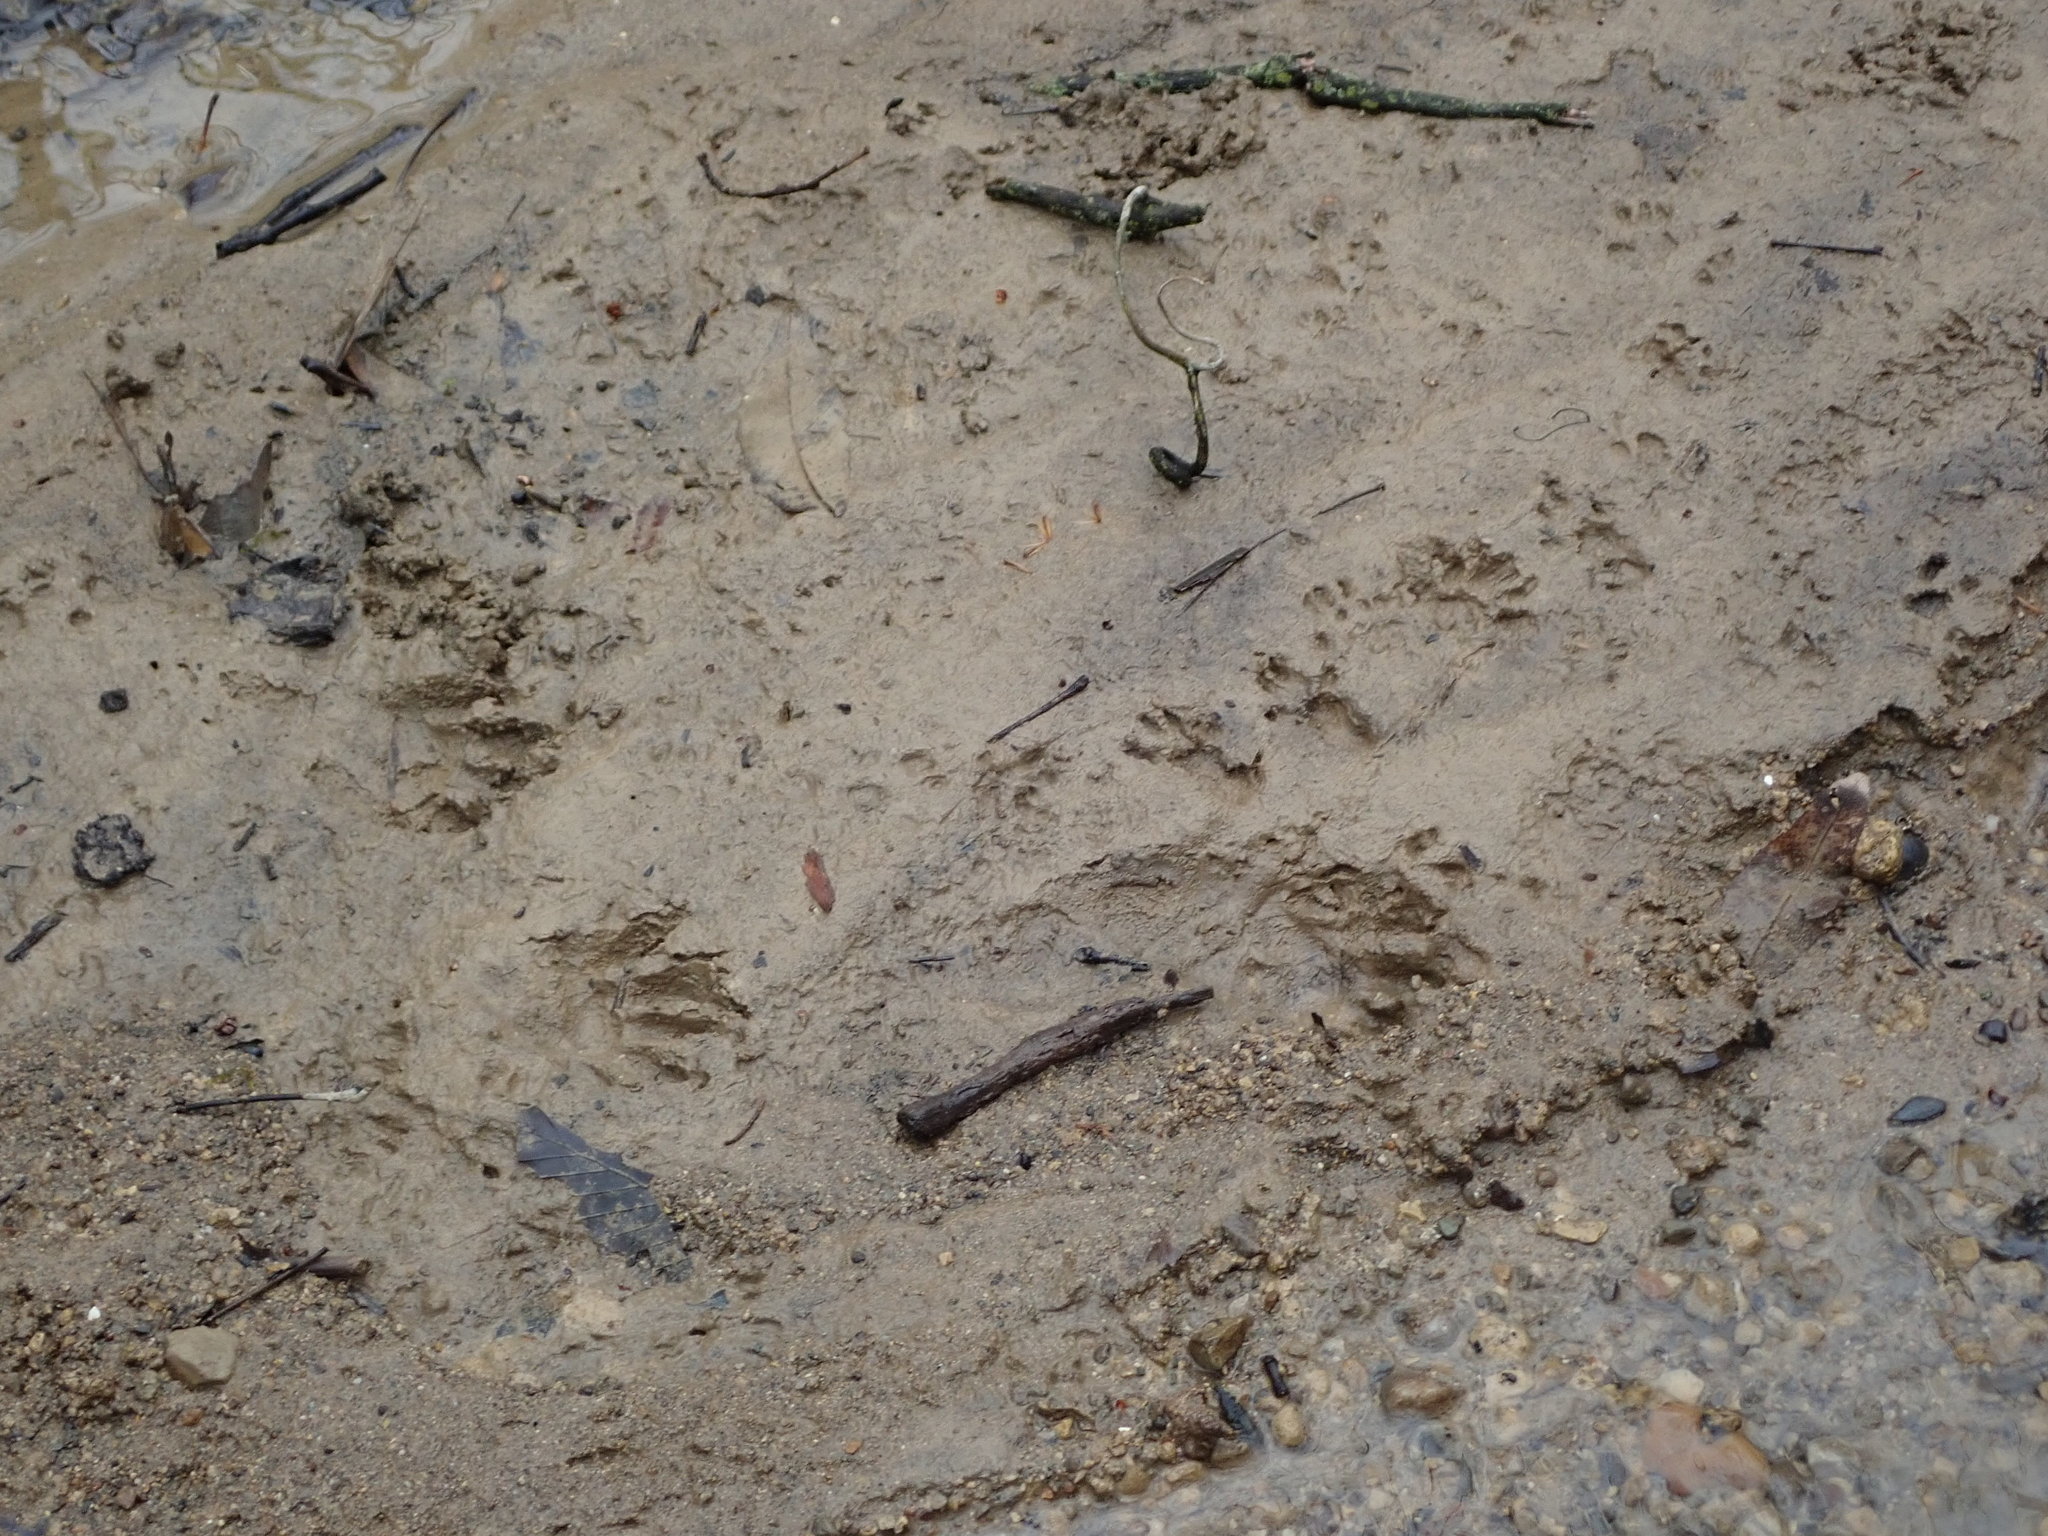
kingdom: Animalia
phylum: Chordata
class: Mammalia
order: Carnivora
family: Procyonidae
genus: Procyon
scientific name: Procyon lotor
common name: Raccoon
